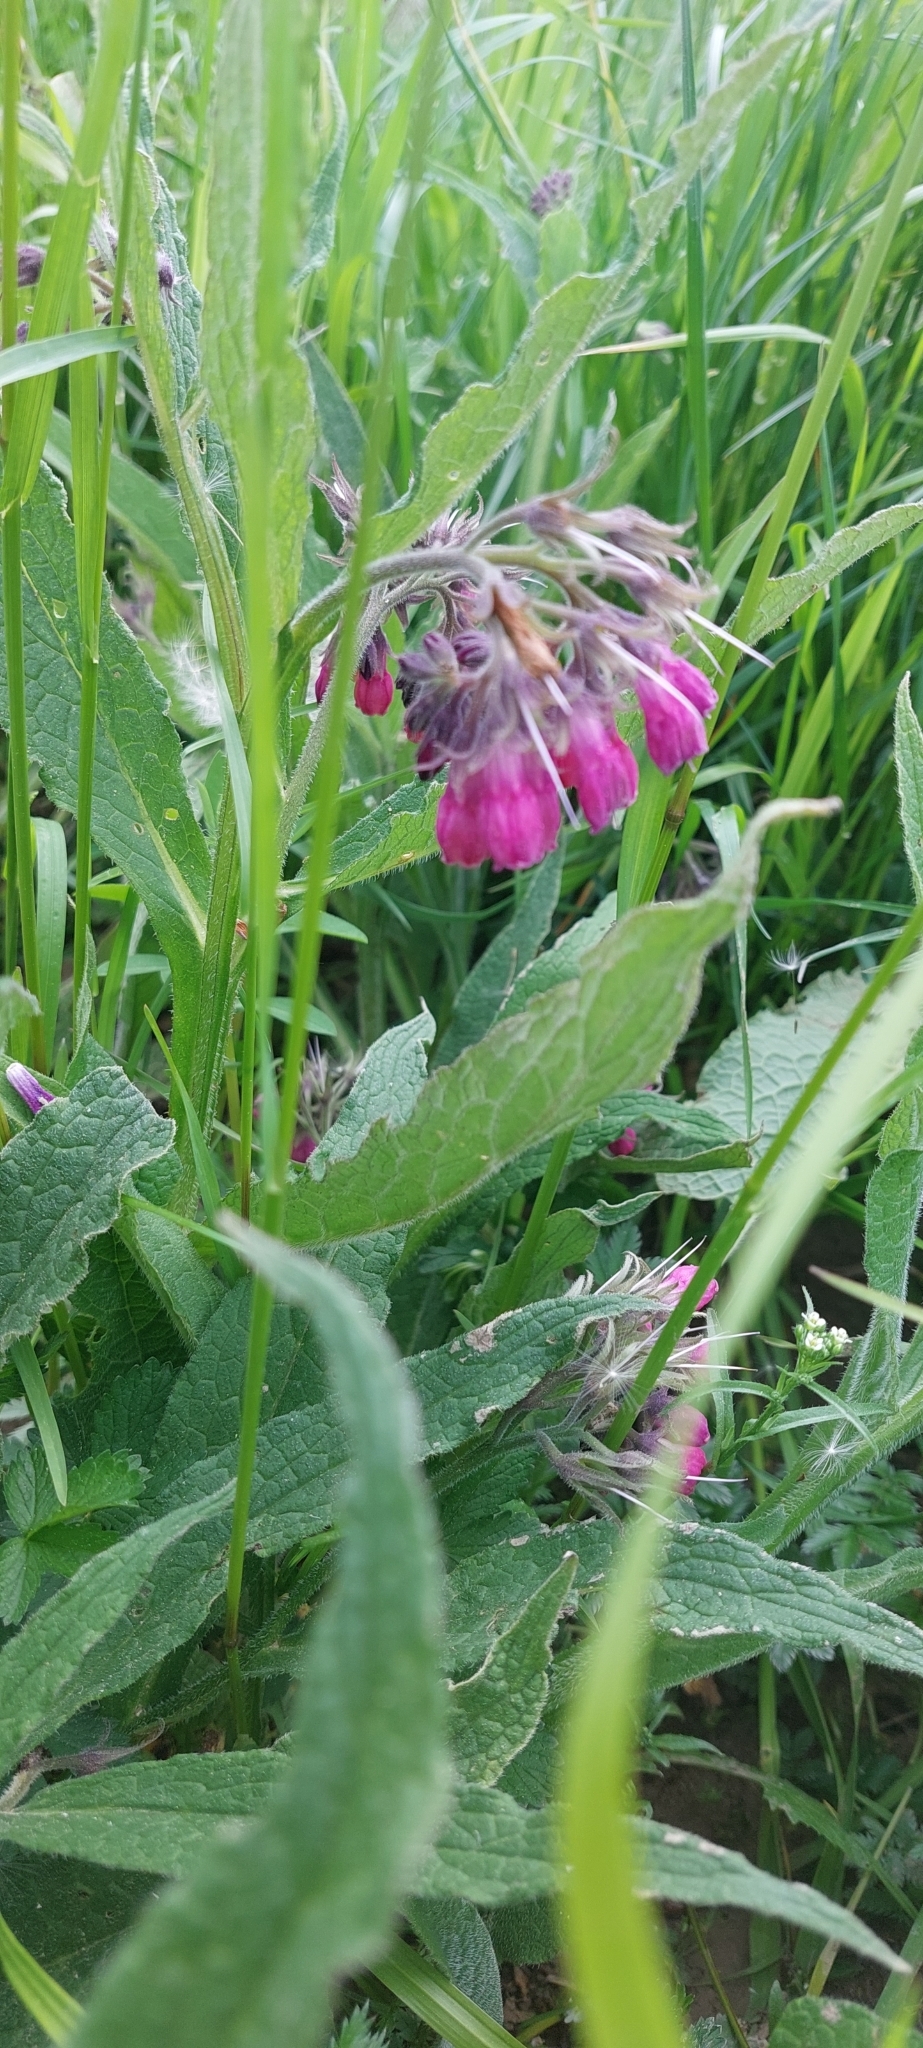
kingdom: Plantae
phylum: Tracheophyta
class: Magnoliopsida
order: Boraginales
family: Boraginaceae
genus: Symphytum
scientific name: Symphytum officinale
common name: Common comfrey
